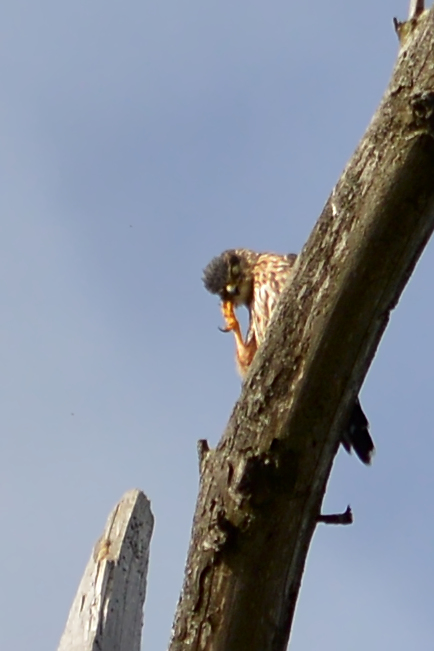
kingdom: Animalia
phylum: Chordata
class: Aves
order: Falconiformes
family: Falconidae
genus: Falco
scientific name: Falco columbarius
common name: Merlin
